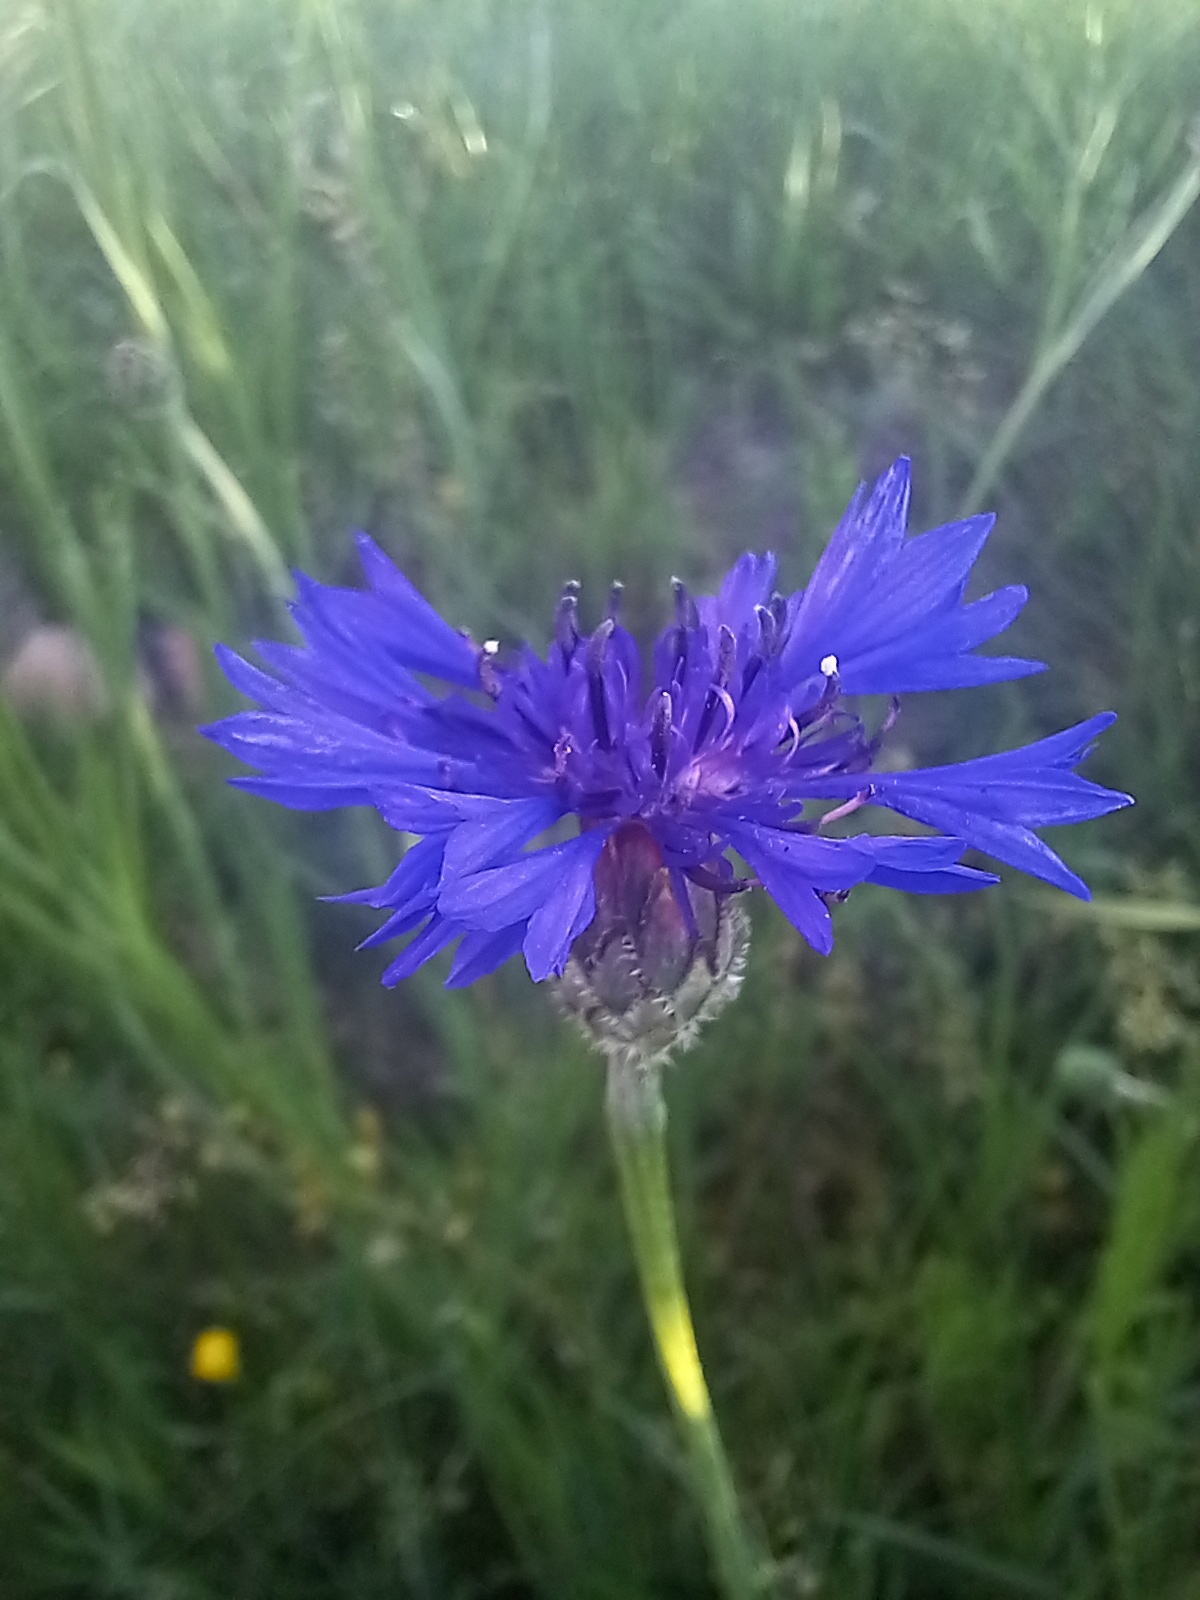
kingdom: Plantae
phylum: Tracheophyta
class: Magnoliopsida
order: Asterales
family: Asteraceae
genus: Centaurea
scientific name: Centaurea cyanus
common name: Cornflower
